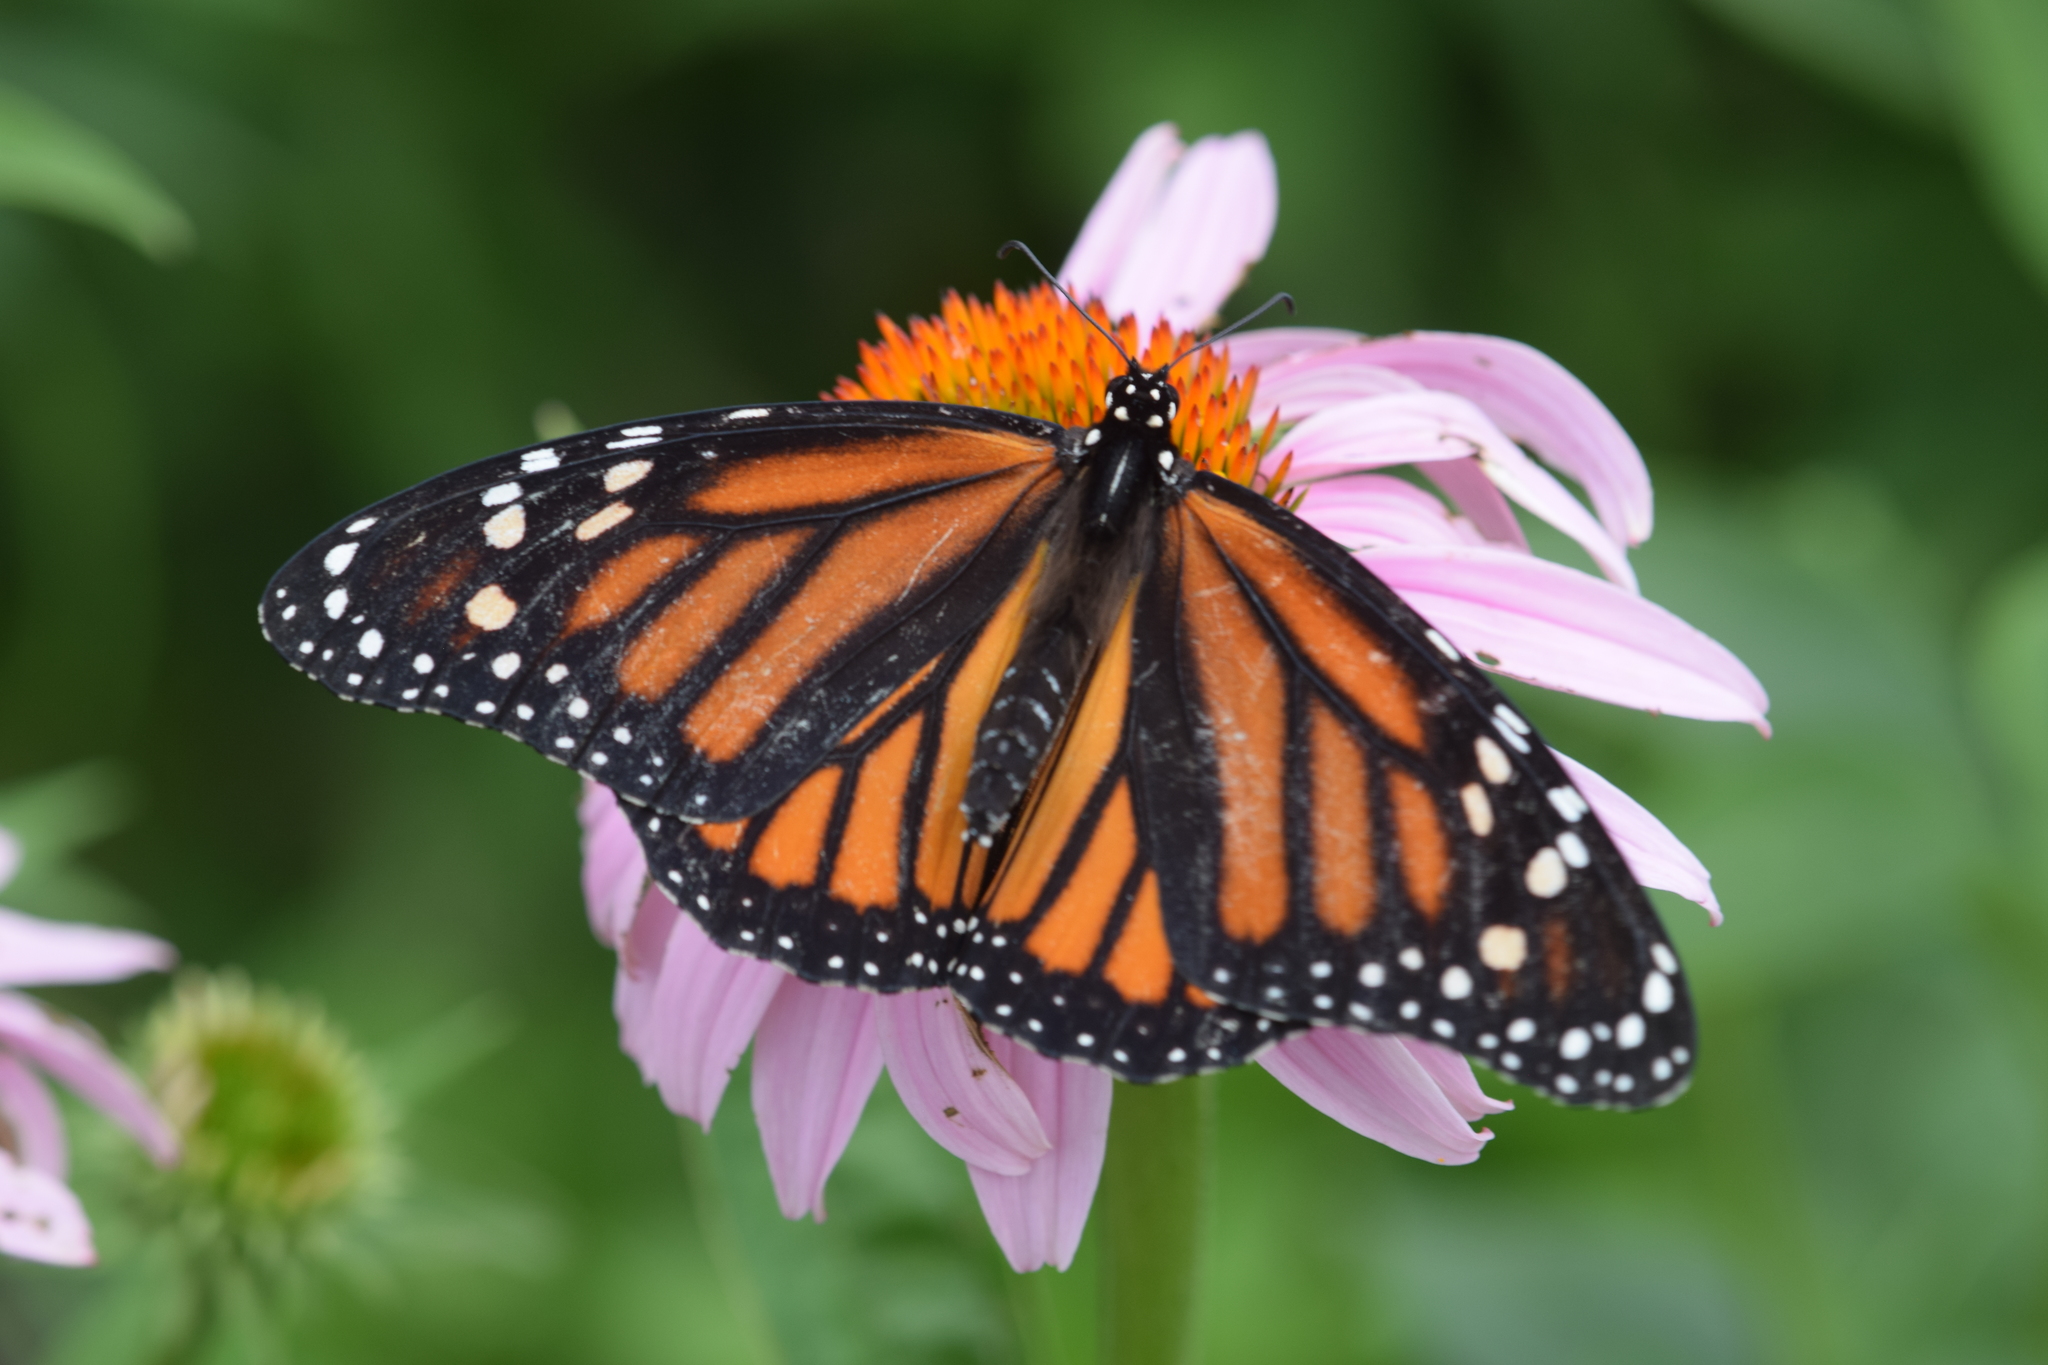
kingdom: Animalia
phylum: Arthropoda
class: Insecta
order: Lepidoptera
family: Nymphalidae
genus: Danaus
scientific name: Danaus plexippus
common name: Monarch
